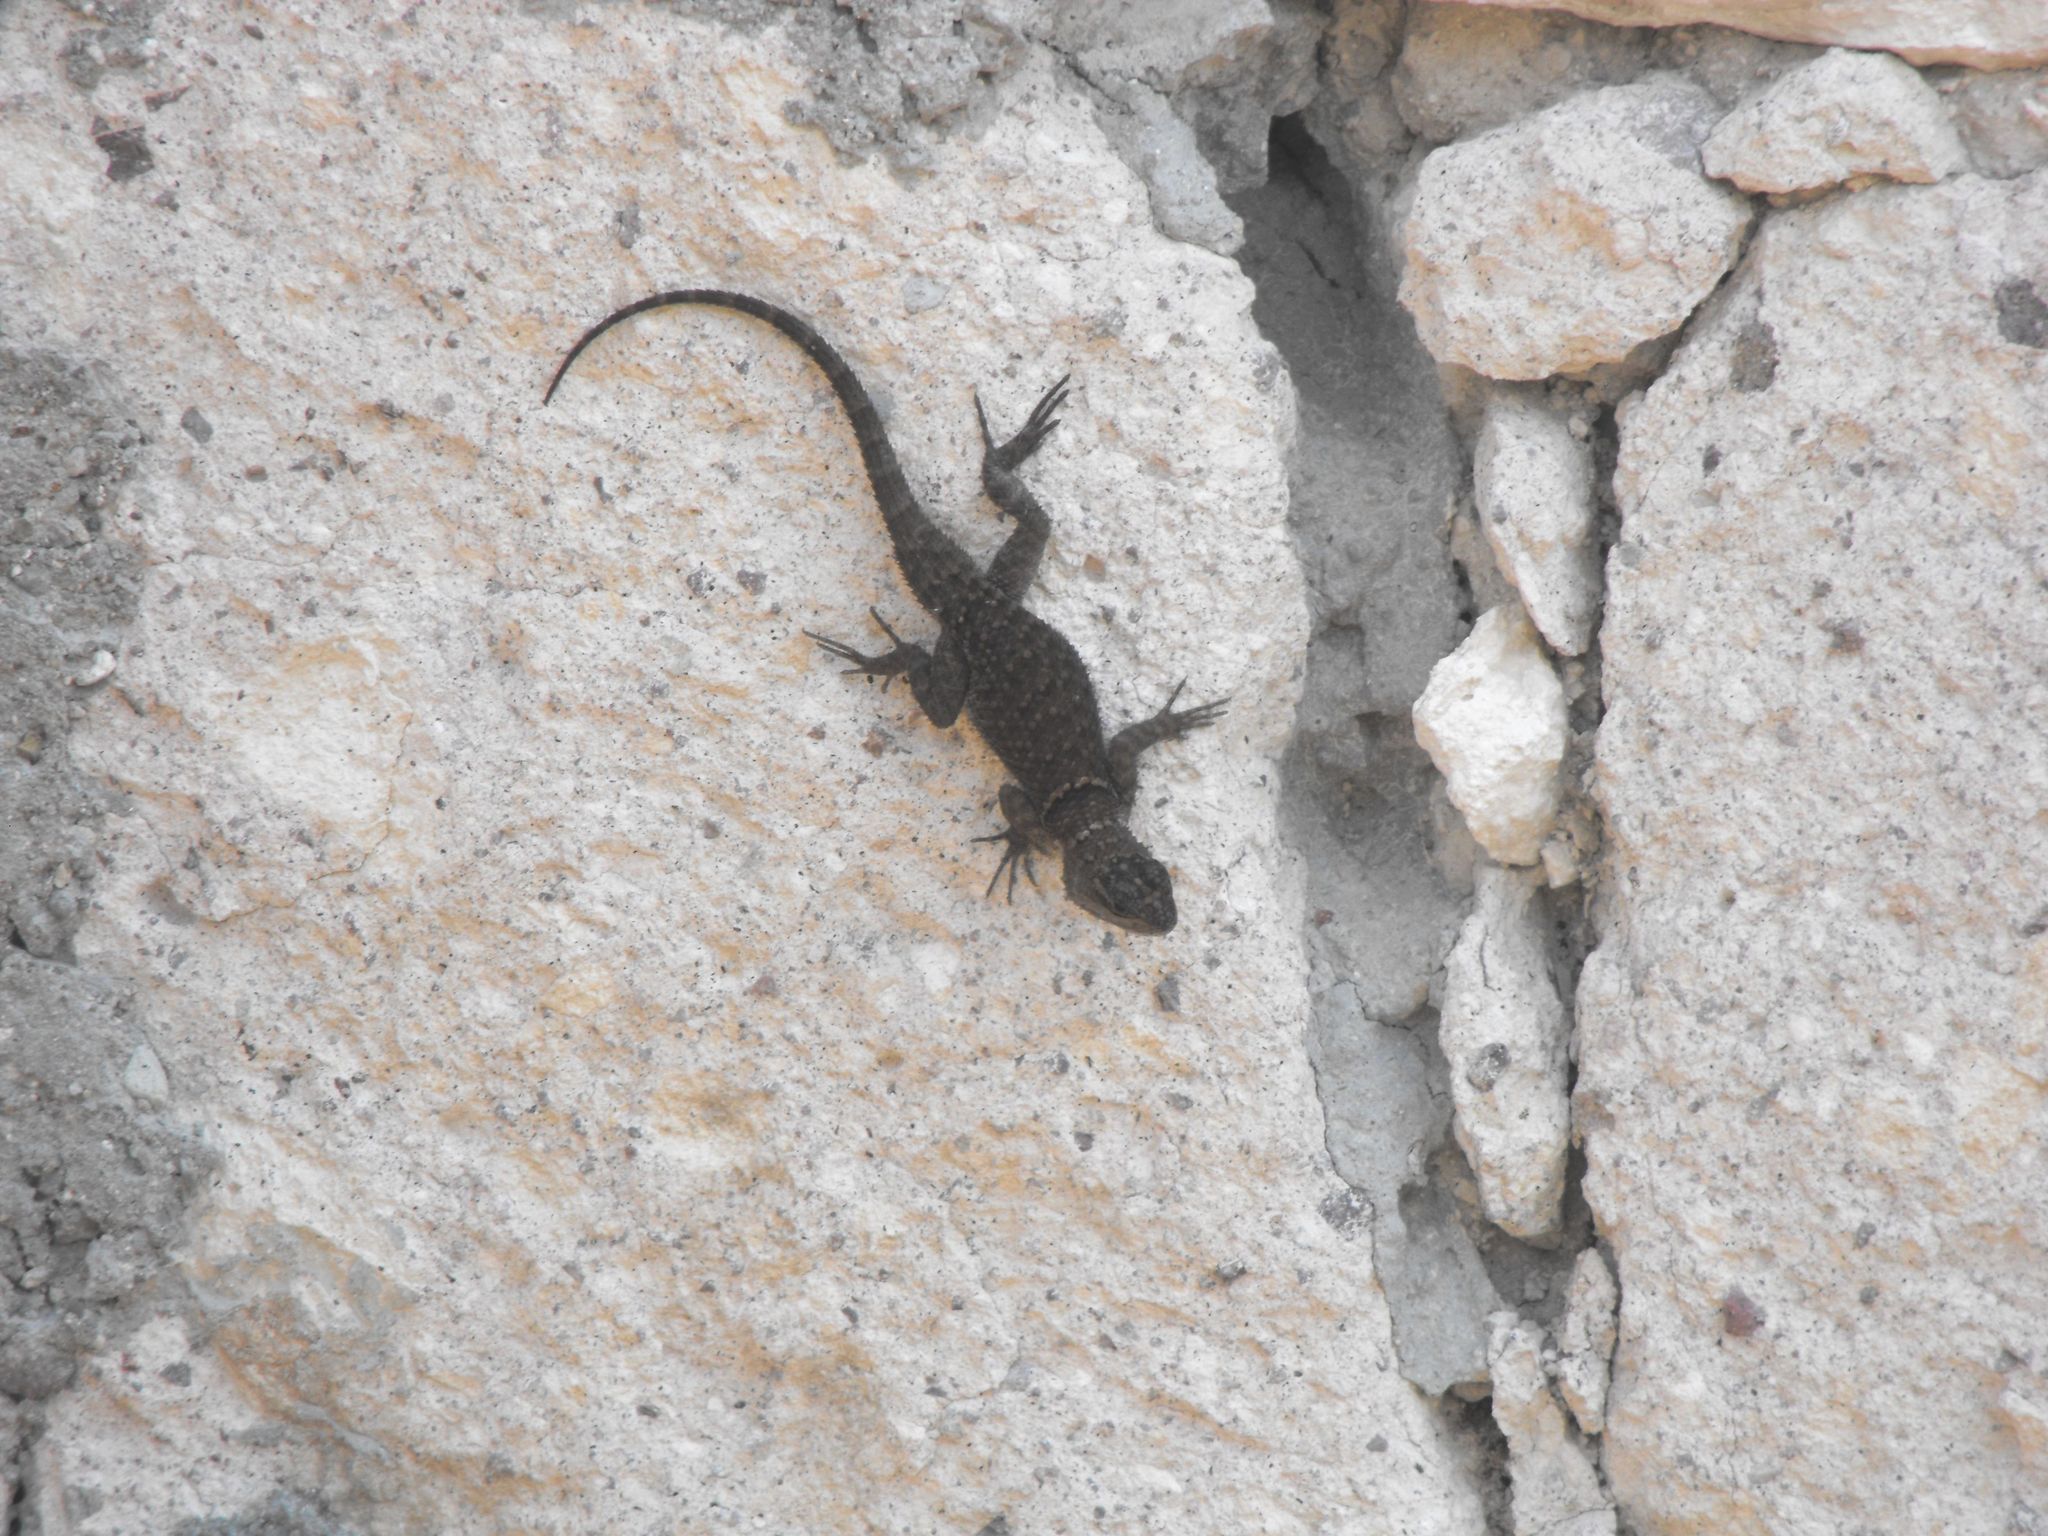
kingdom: Animalia
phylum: Chordata
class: Squamata
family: Phrynosomatidae
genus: Sceloporus
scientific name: Sceloporus aureolus
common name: Eastern cleft spiny lizard
